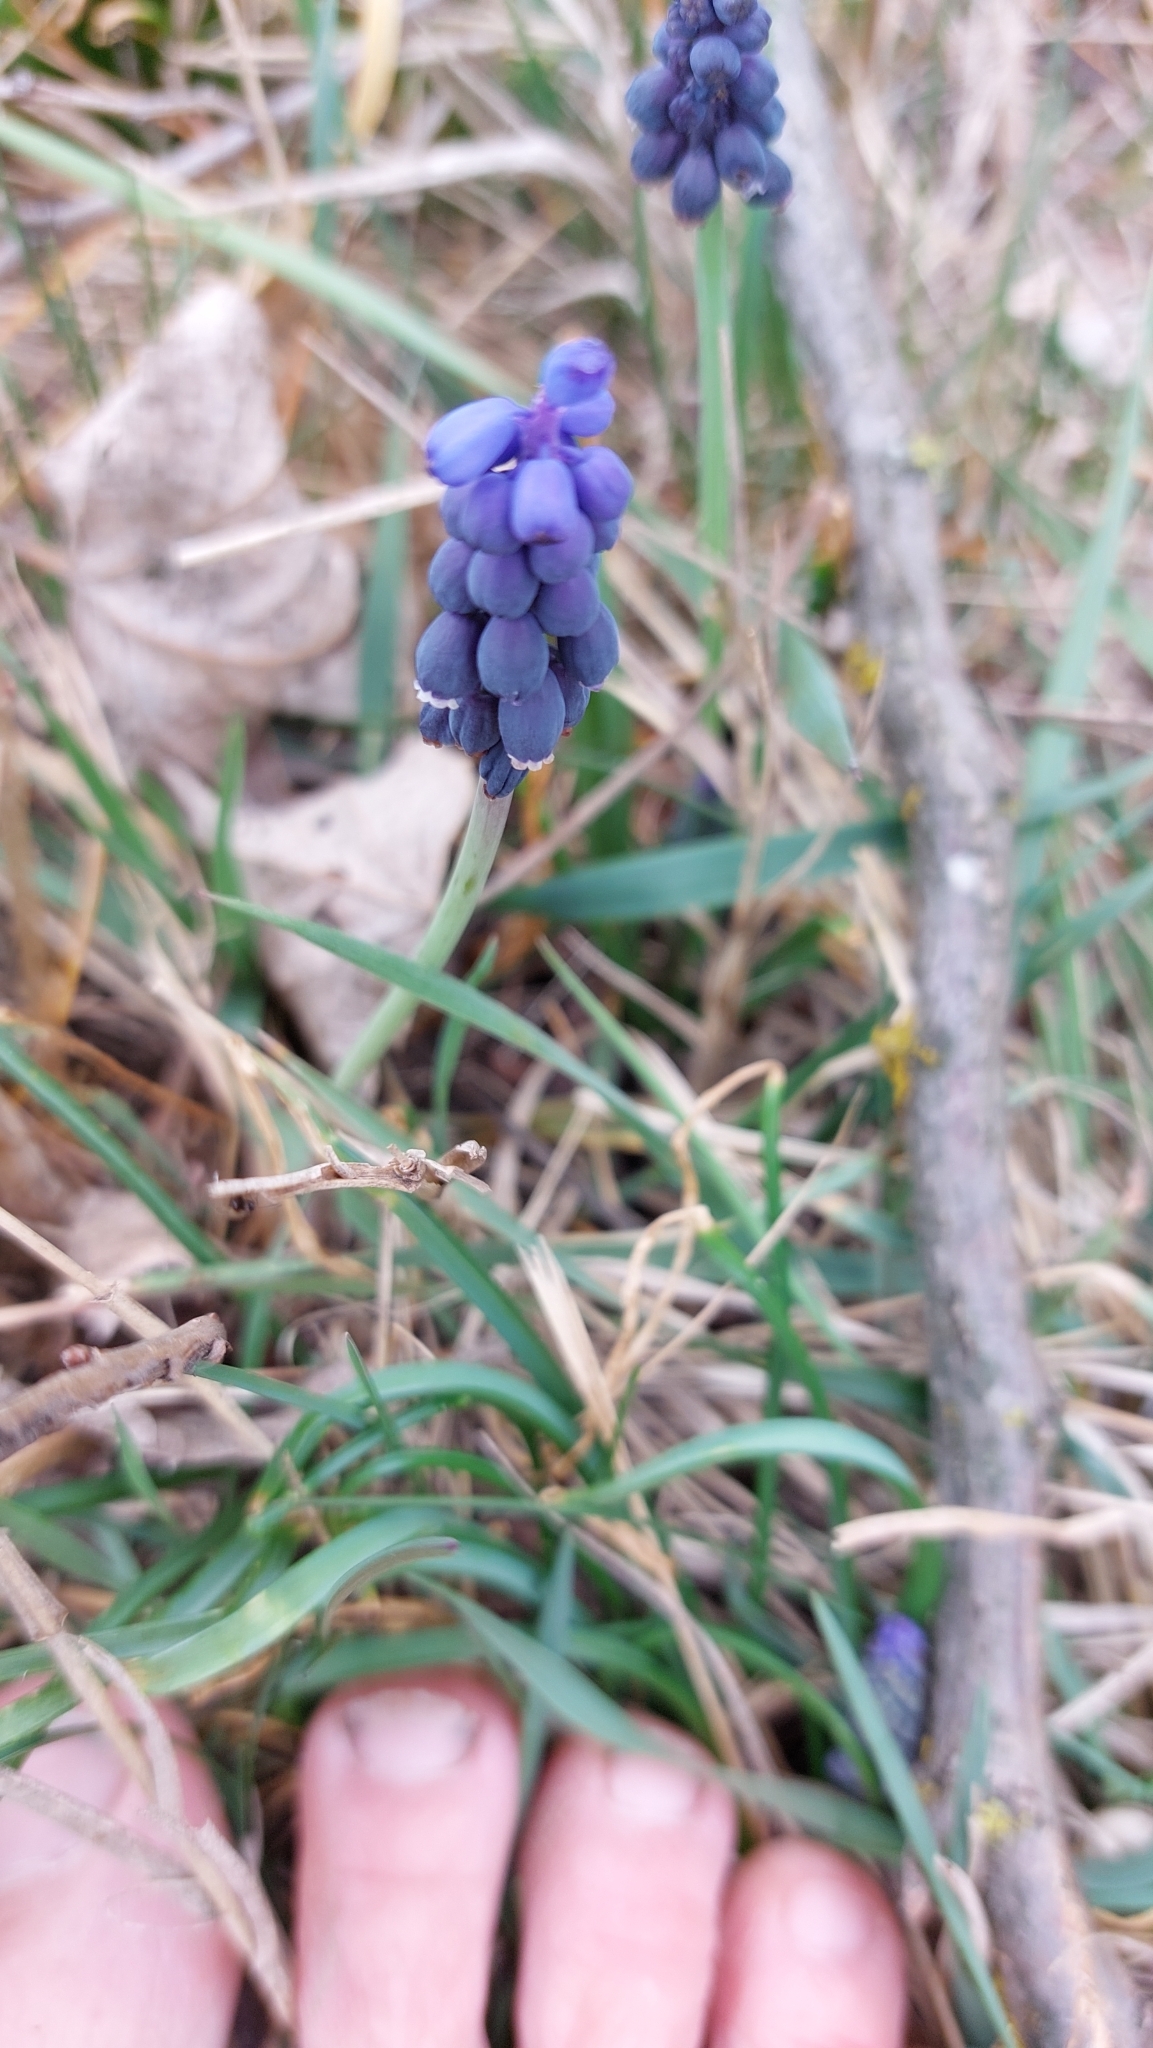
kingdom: Plantae
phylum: Tracheophyta
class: Liliopsida
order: Asparagales
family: Asparagaceae
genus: Muscari
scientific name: Muscari neglectum
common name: Grape-hyacinth
